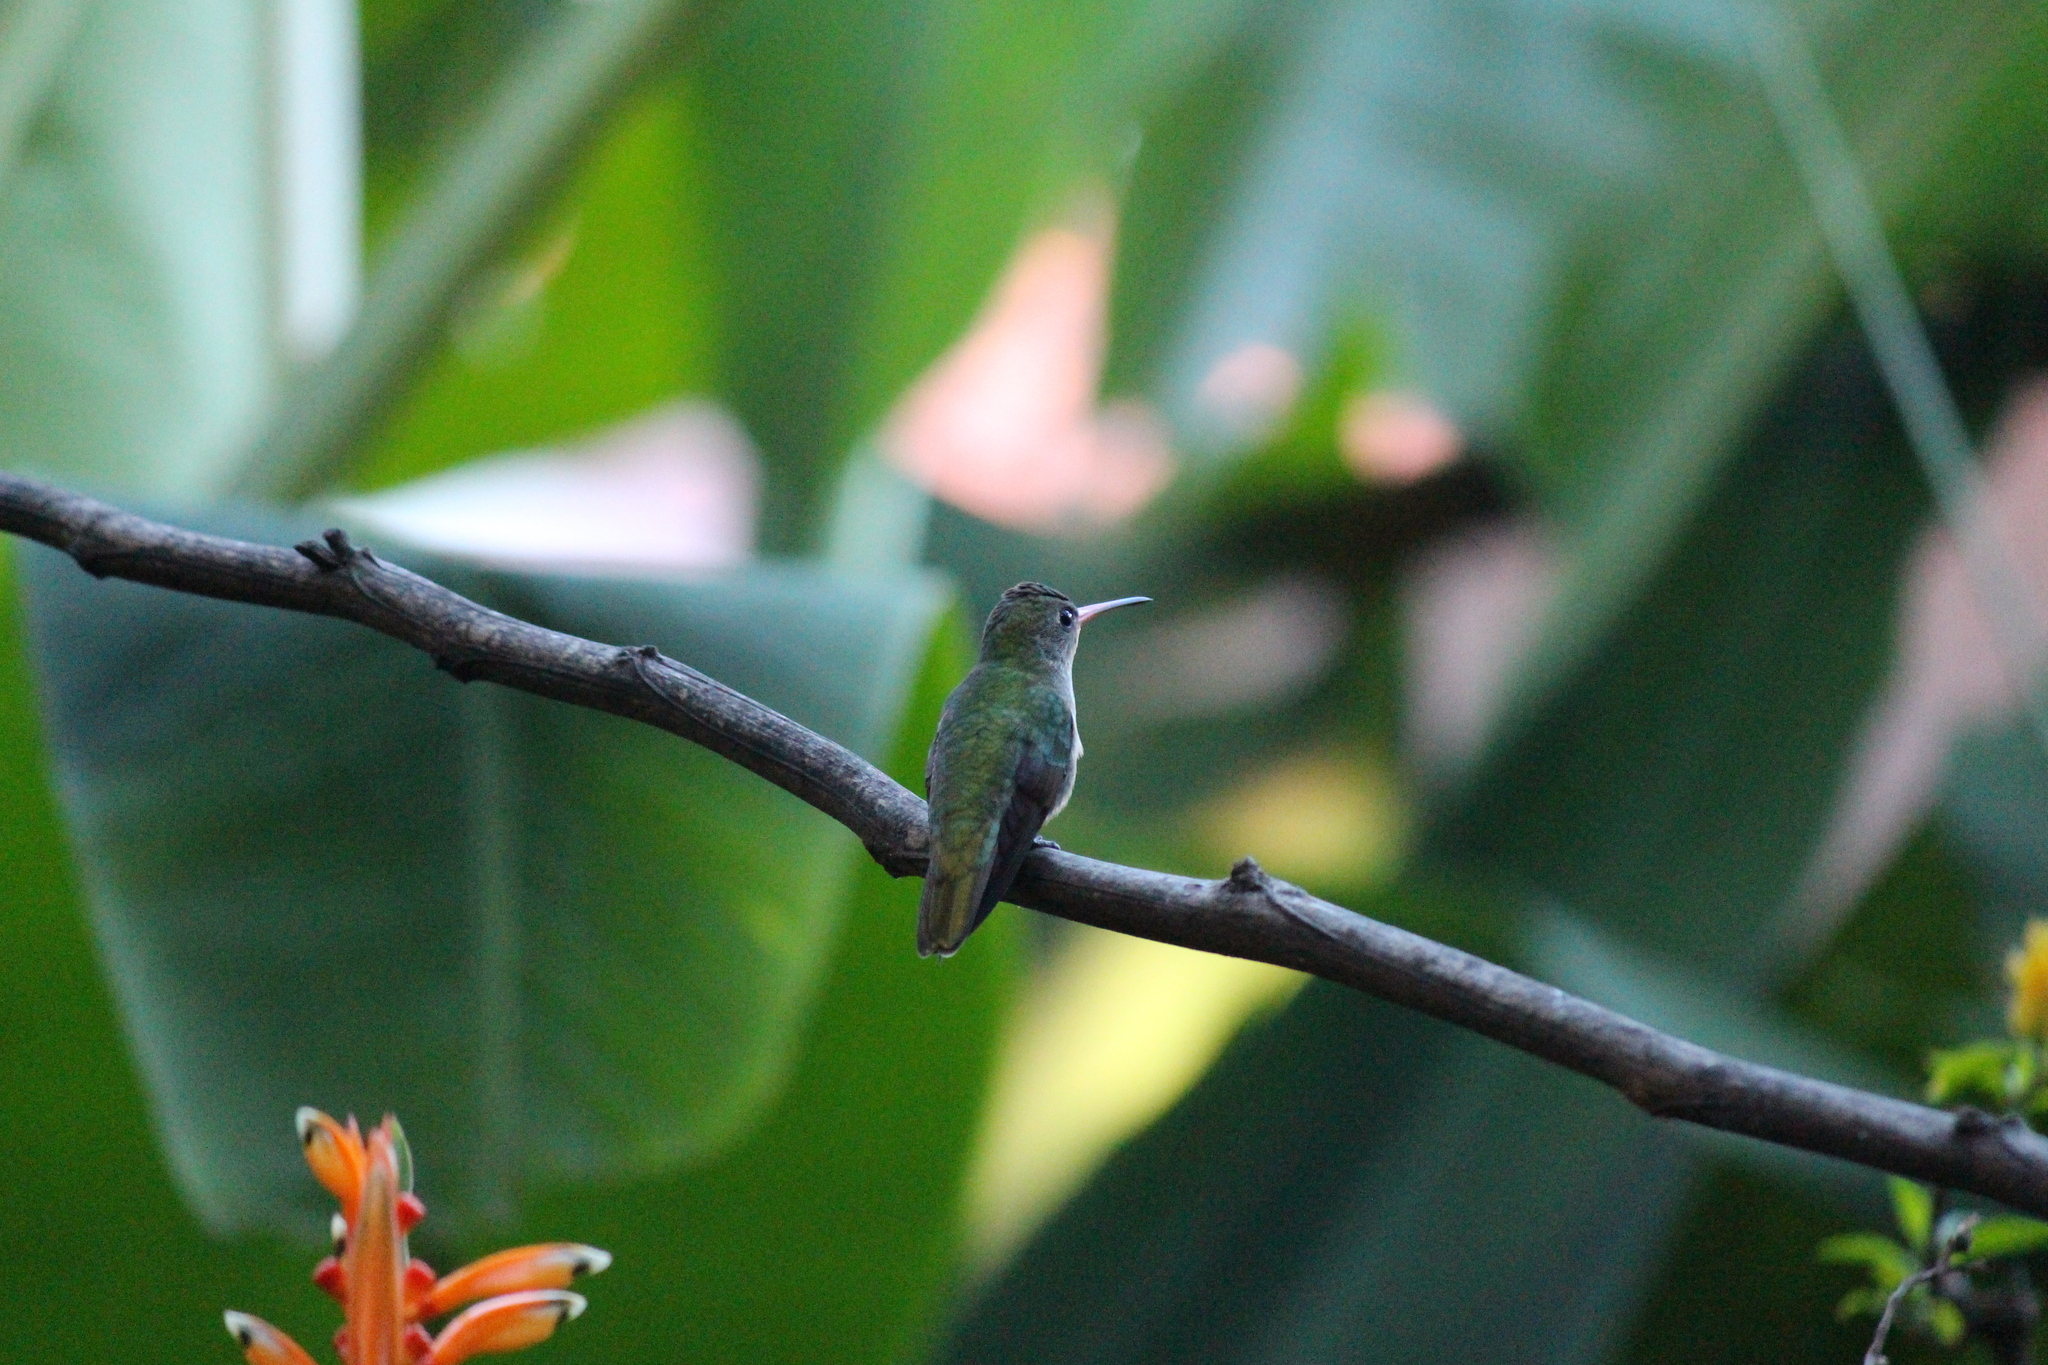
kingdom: Animalia
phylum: Chordata
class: Aves
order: Apodiformes
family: Trochilidae
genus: Hylocharis
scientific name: Hylocharis chrysura
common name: Gilded sapphire
